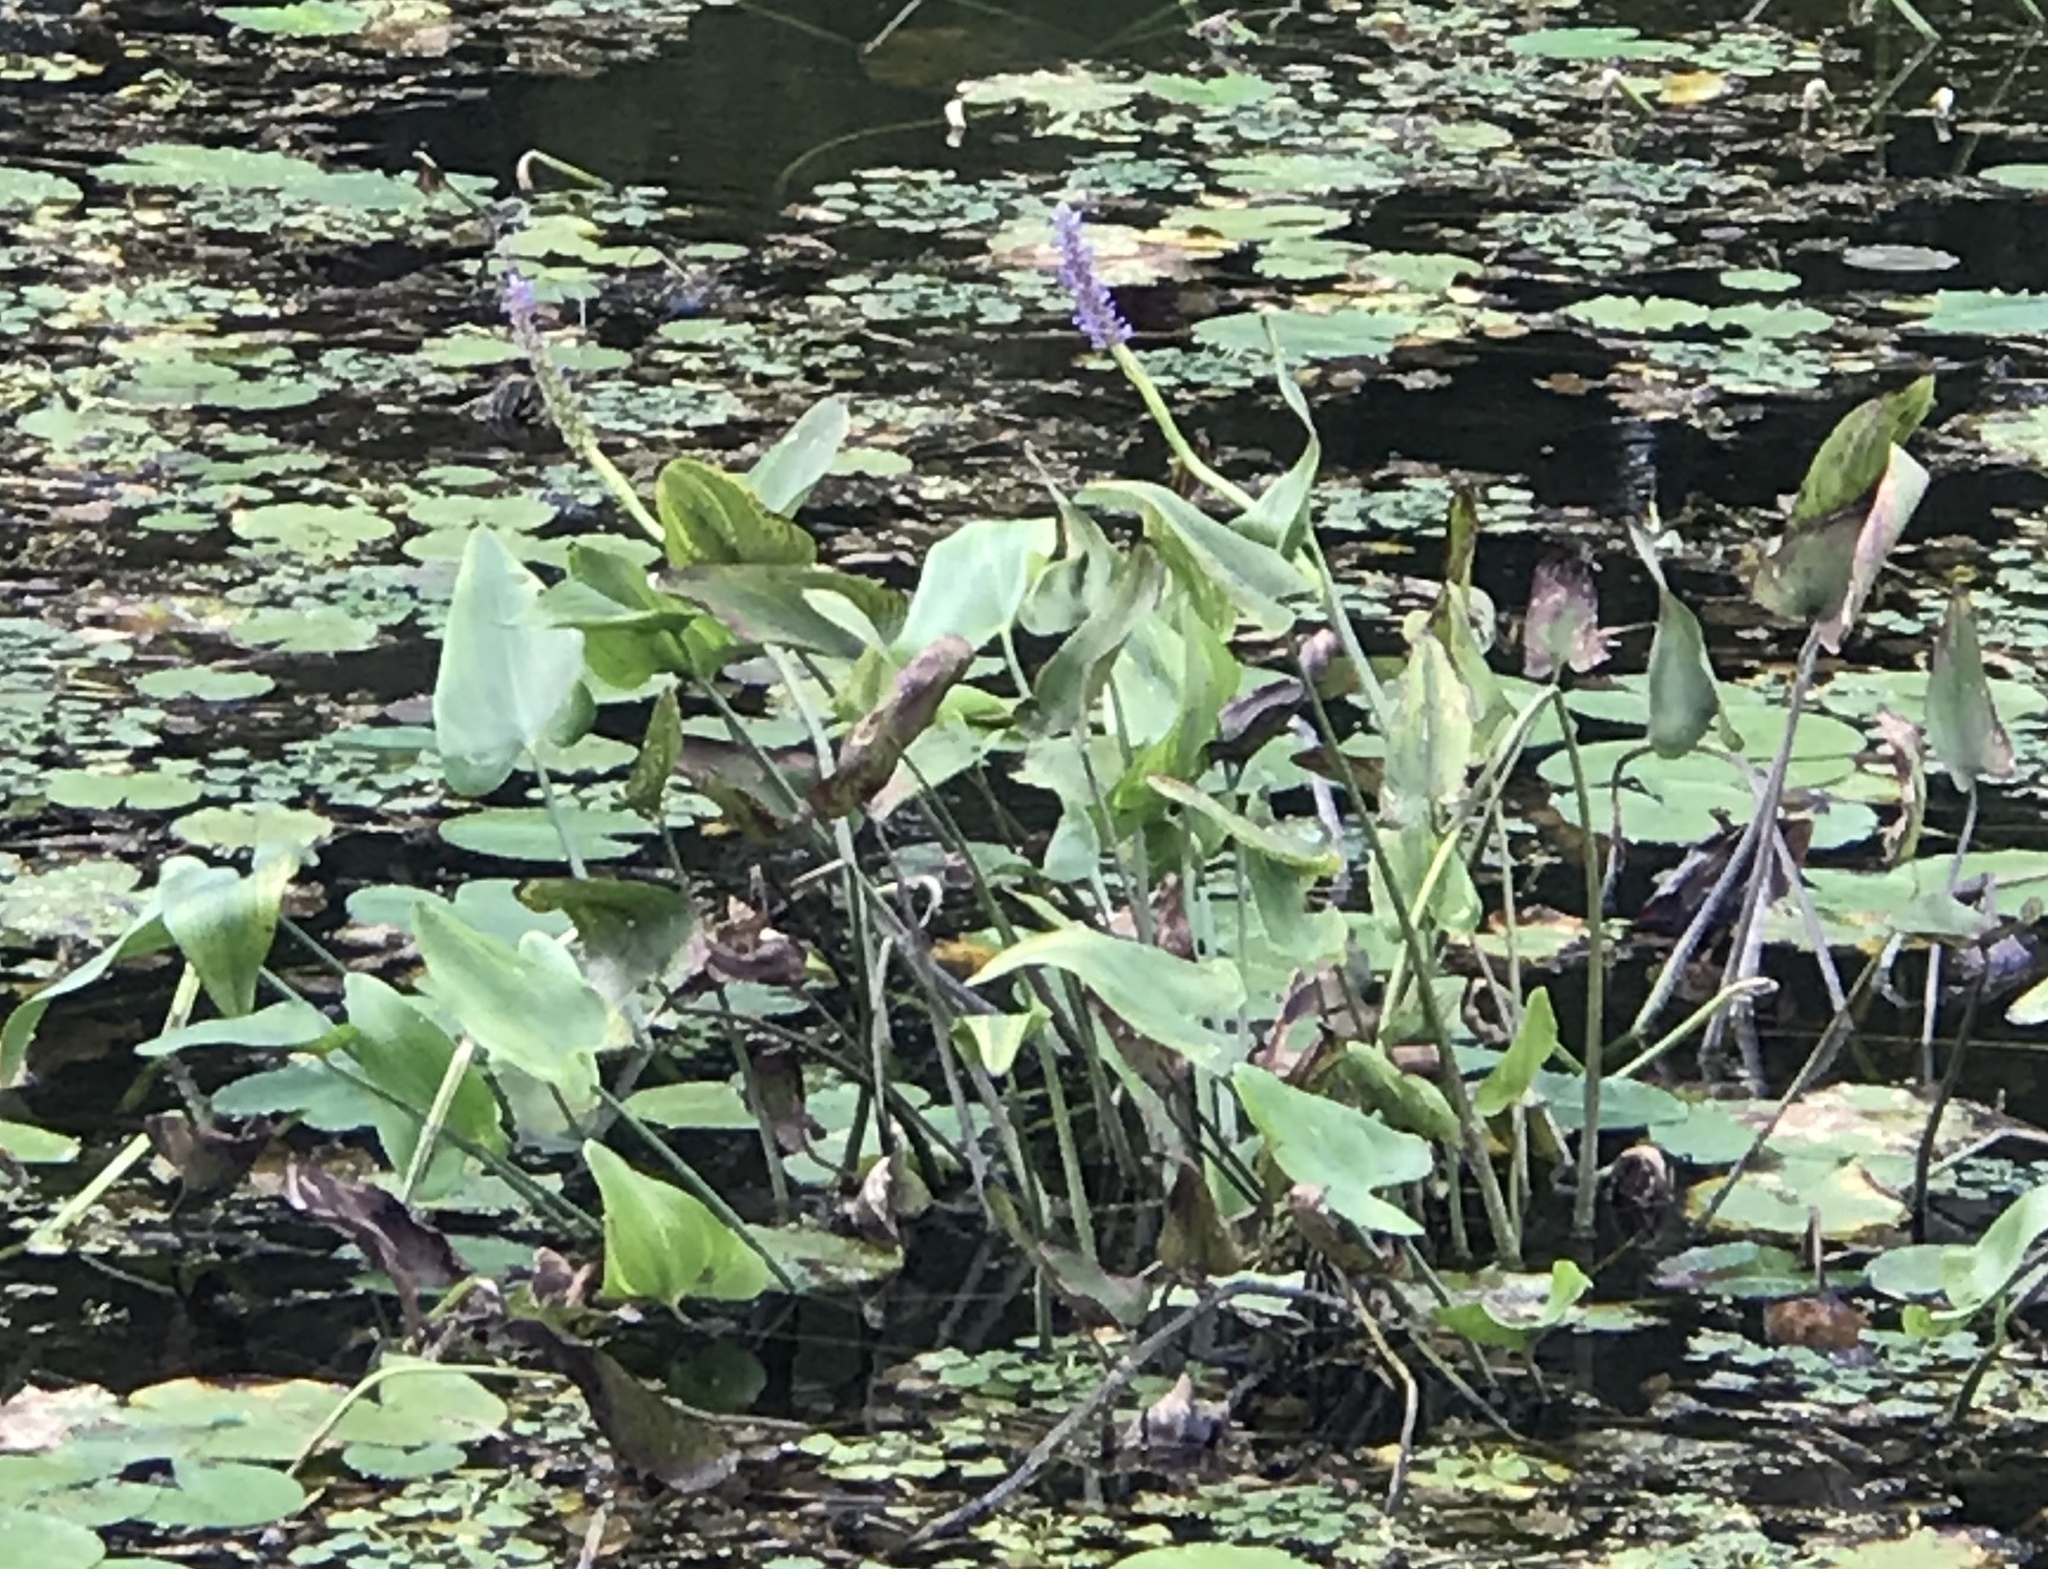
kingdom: Plantae
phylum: Tracheophyta
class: Liliopsida
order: Commelinales
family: Pontederiaceae
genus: Pontederia
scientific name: Pontederia cordata
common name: Pickerelweed
